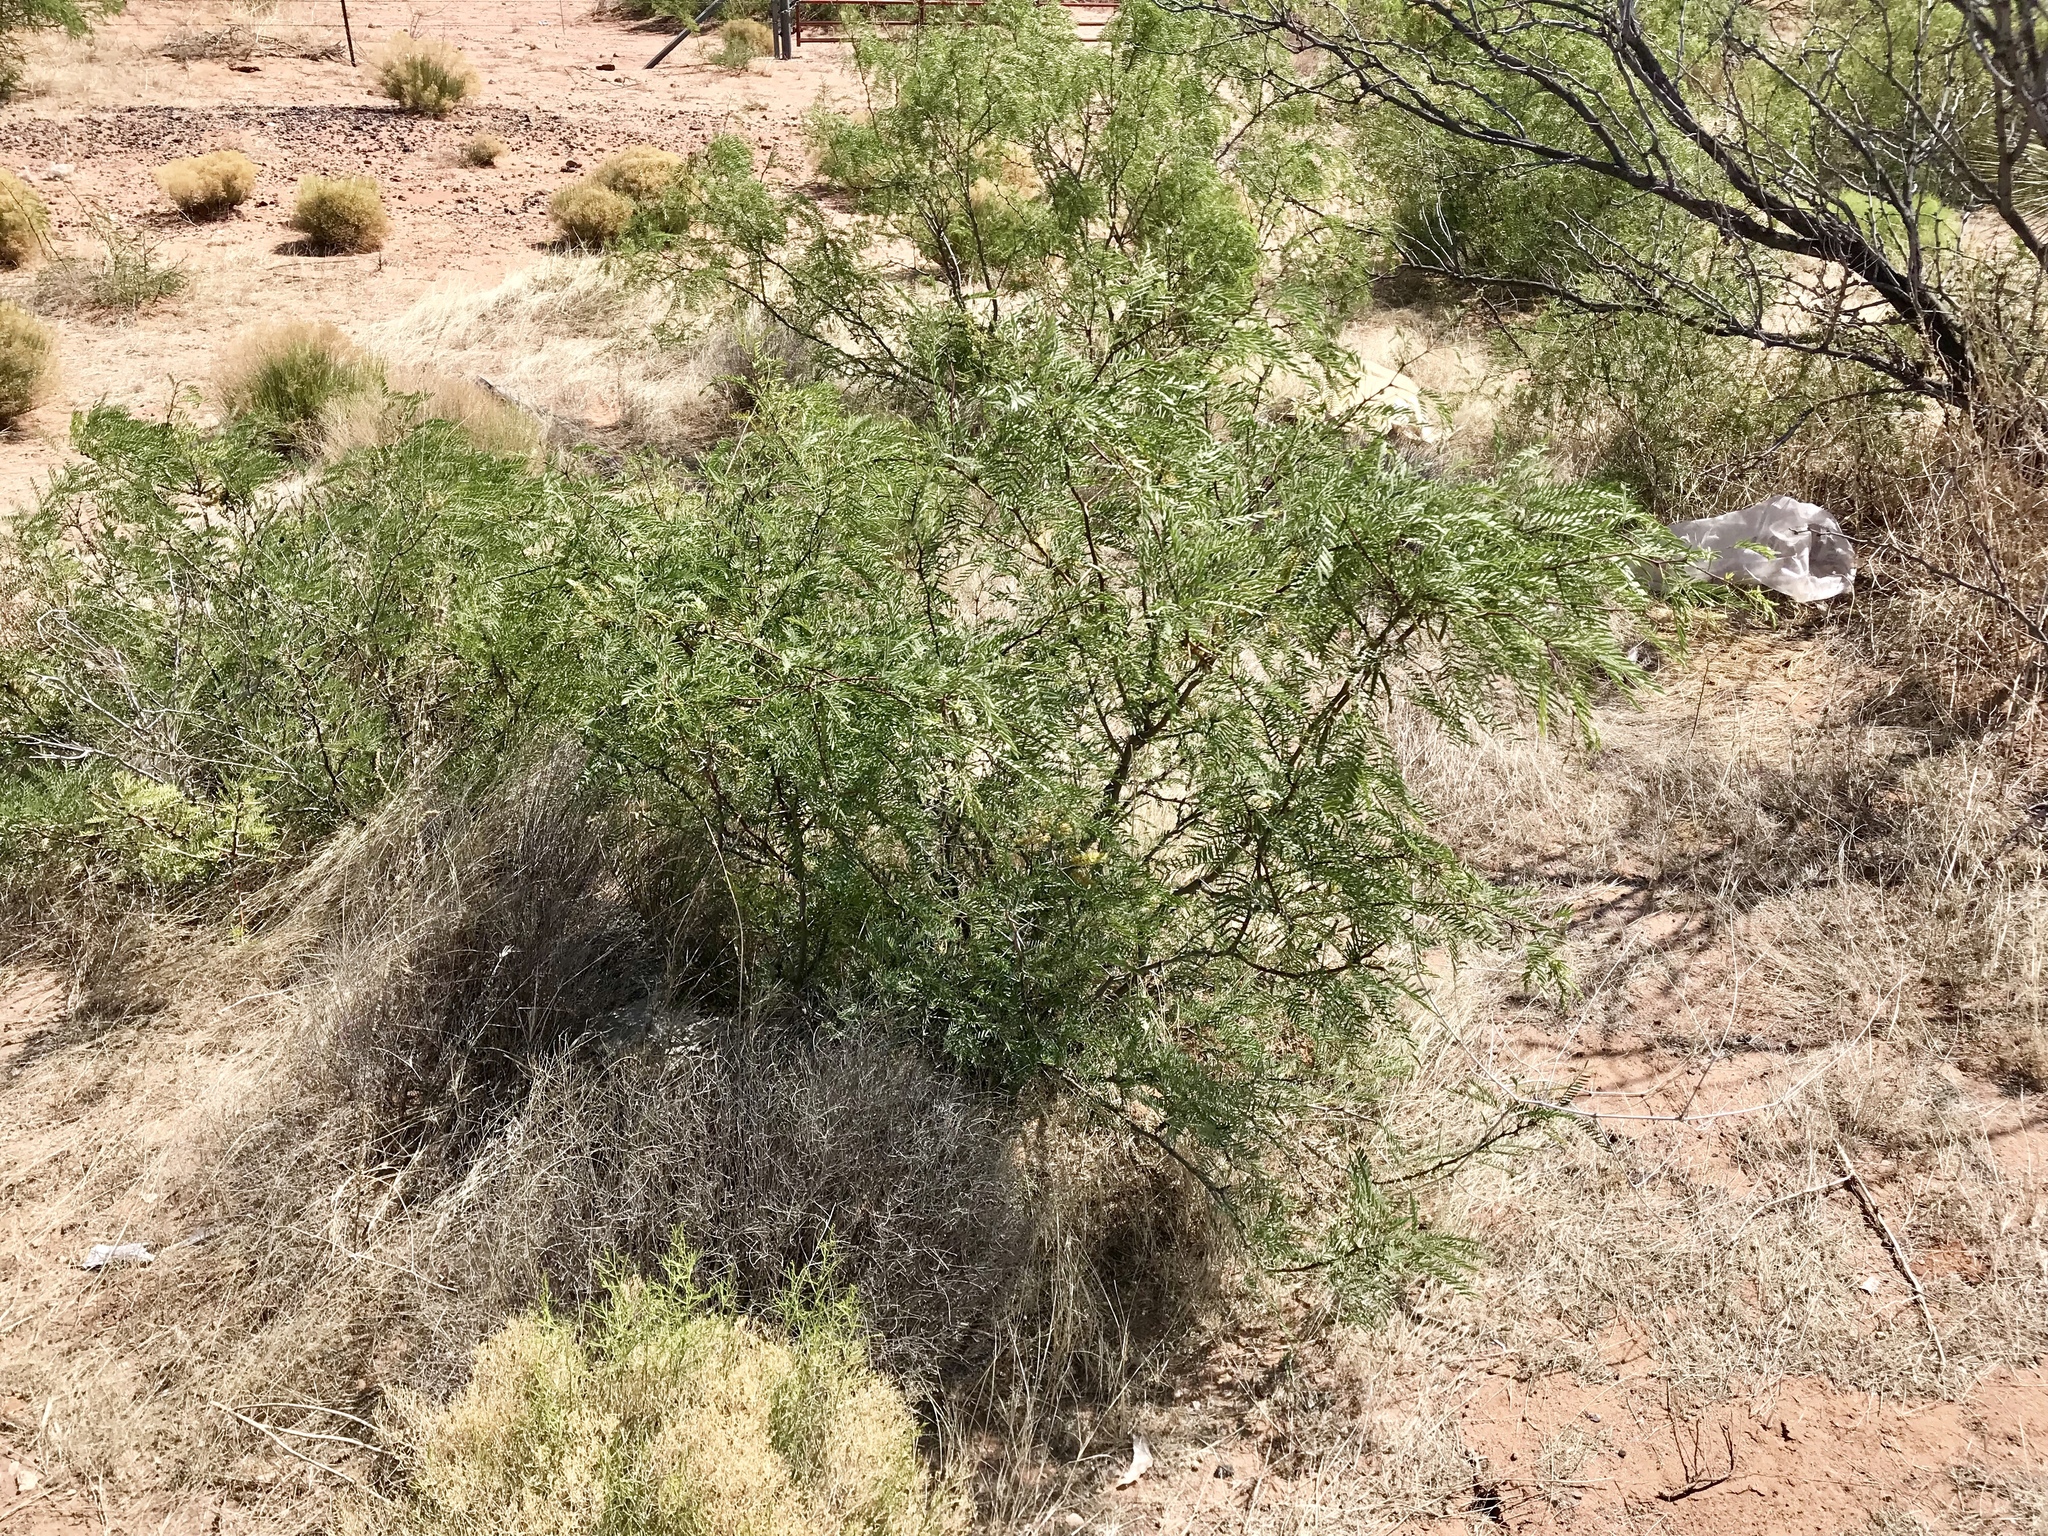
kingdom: Plantae
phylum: Tracheophyta
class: Magnoliopsida
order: Fabales
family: Fabaceae
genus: Prosopis
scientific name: Prosopis glandulosa
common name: Honey mesquite
